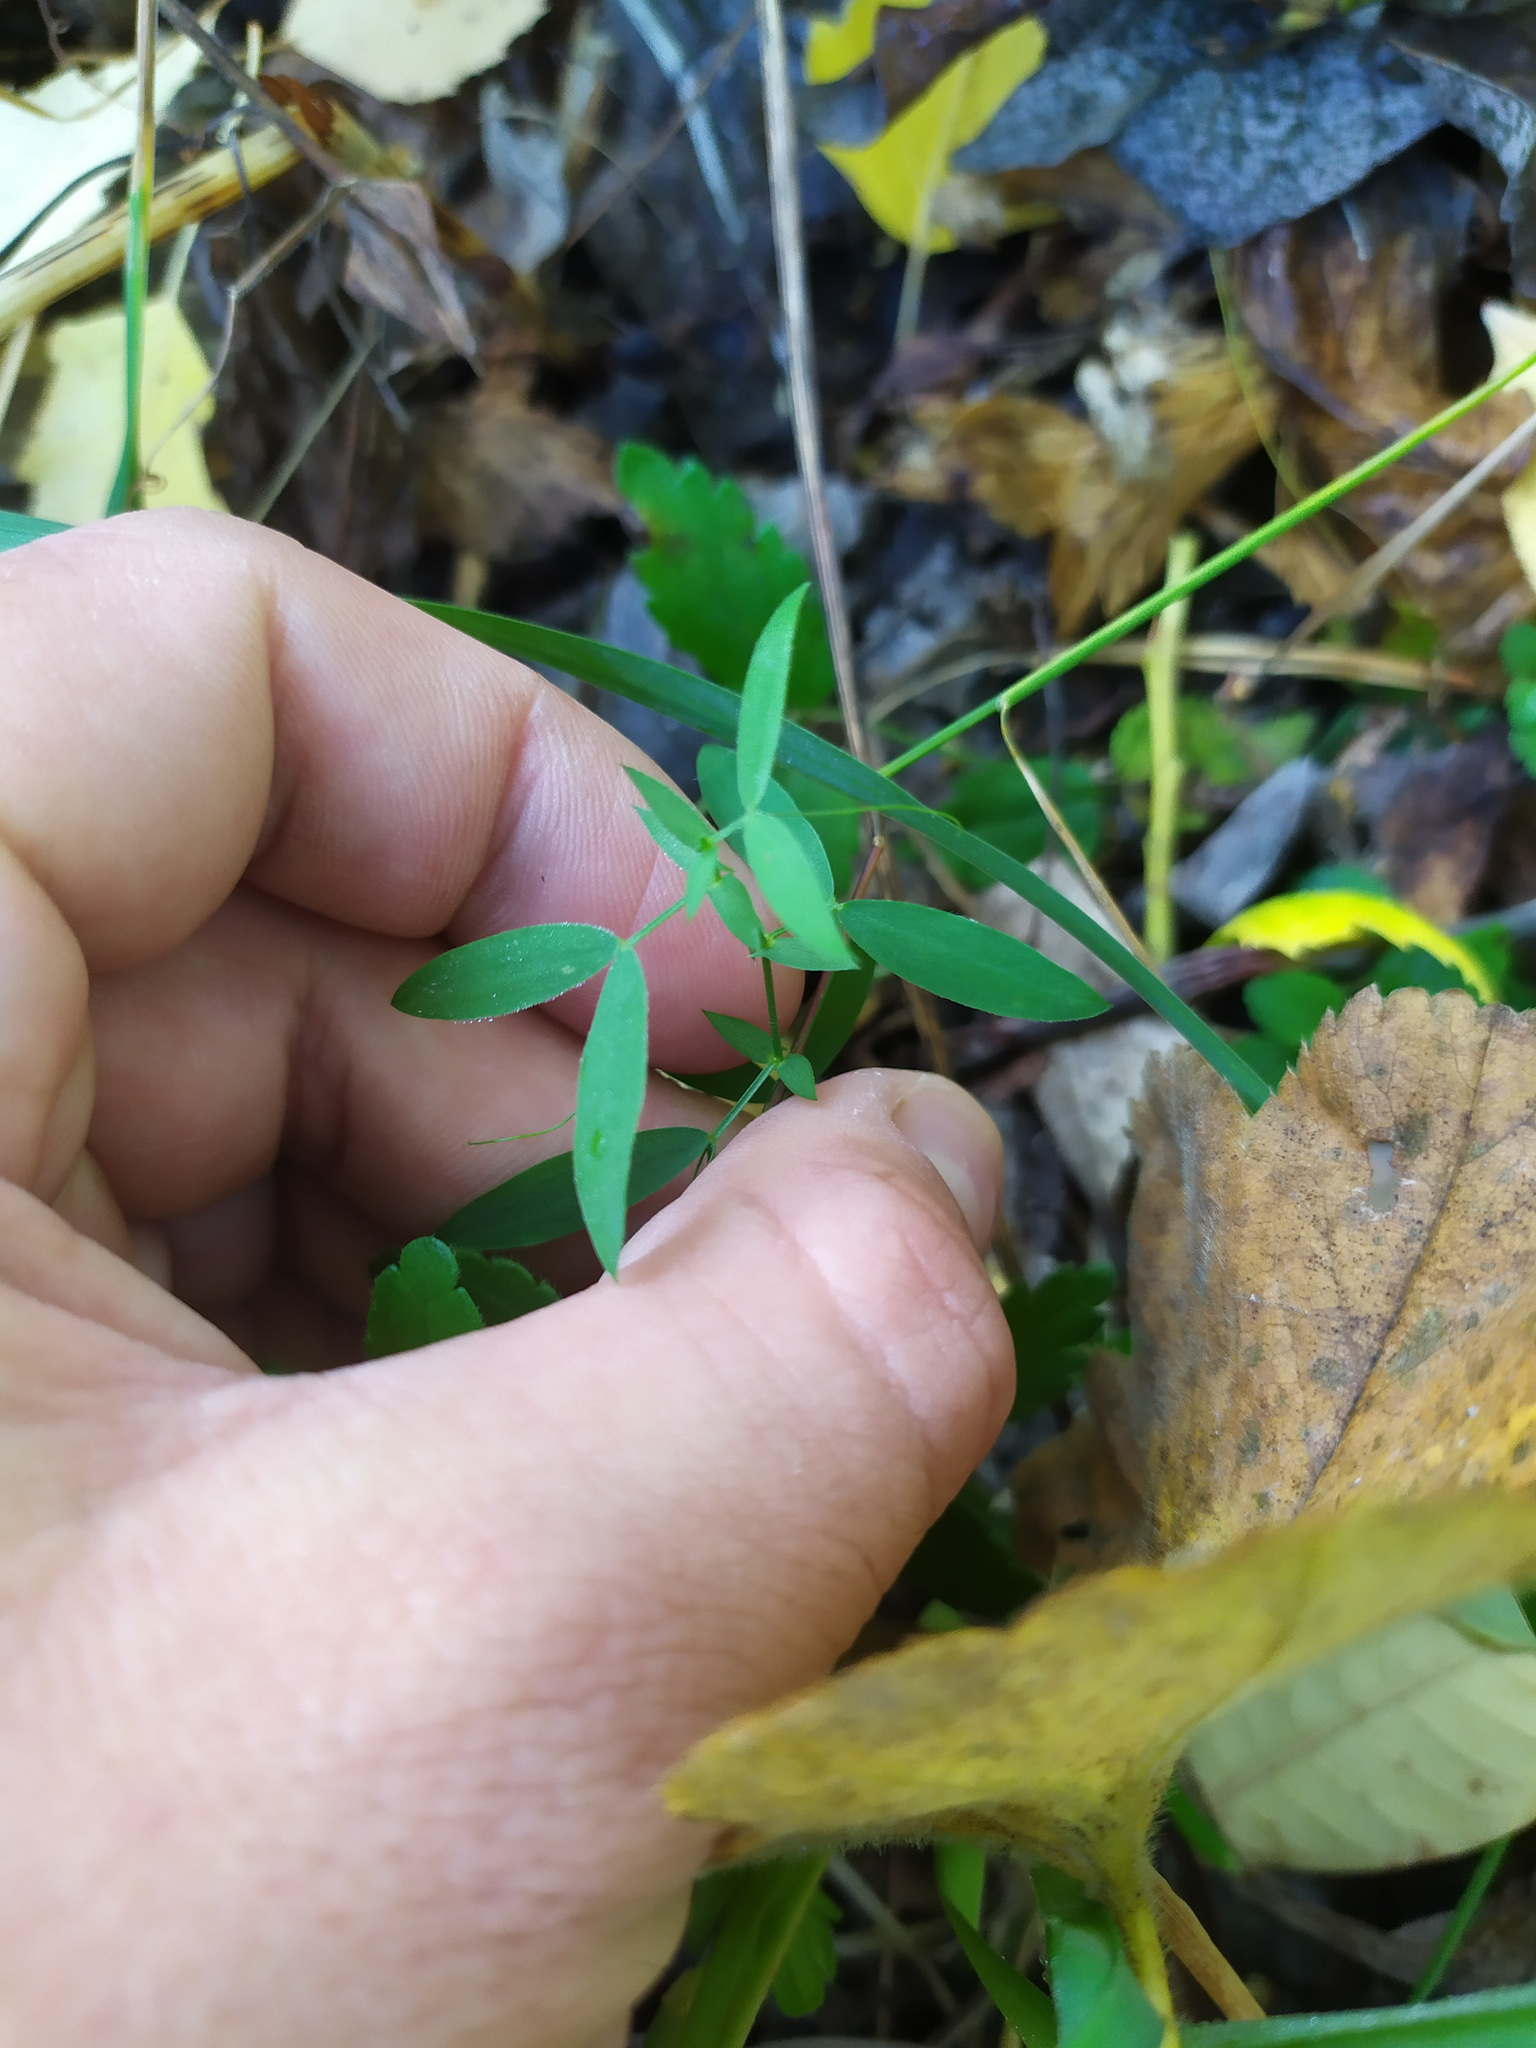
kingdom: Plantae
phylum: Tracheophyta
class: Magnoliopsida
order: Fabales
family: Fabaceae
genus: Lathyrus
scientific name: Lathyrus pratensis
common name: Meadow vetchling
